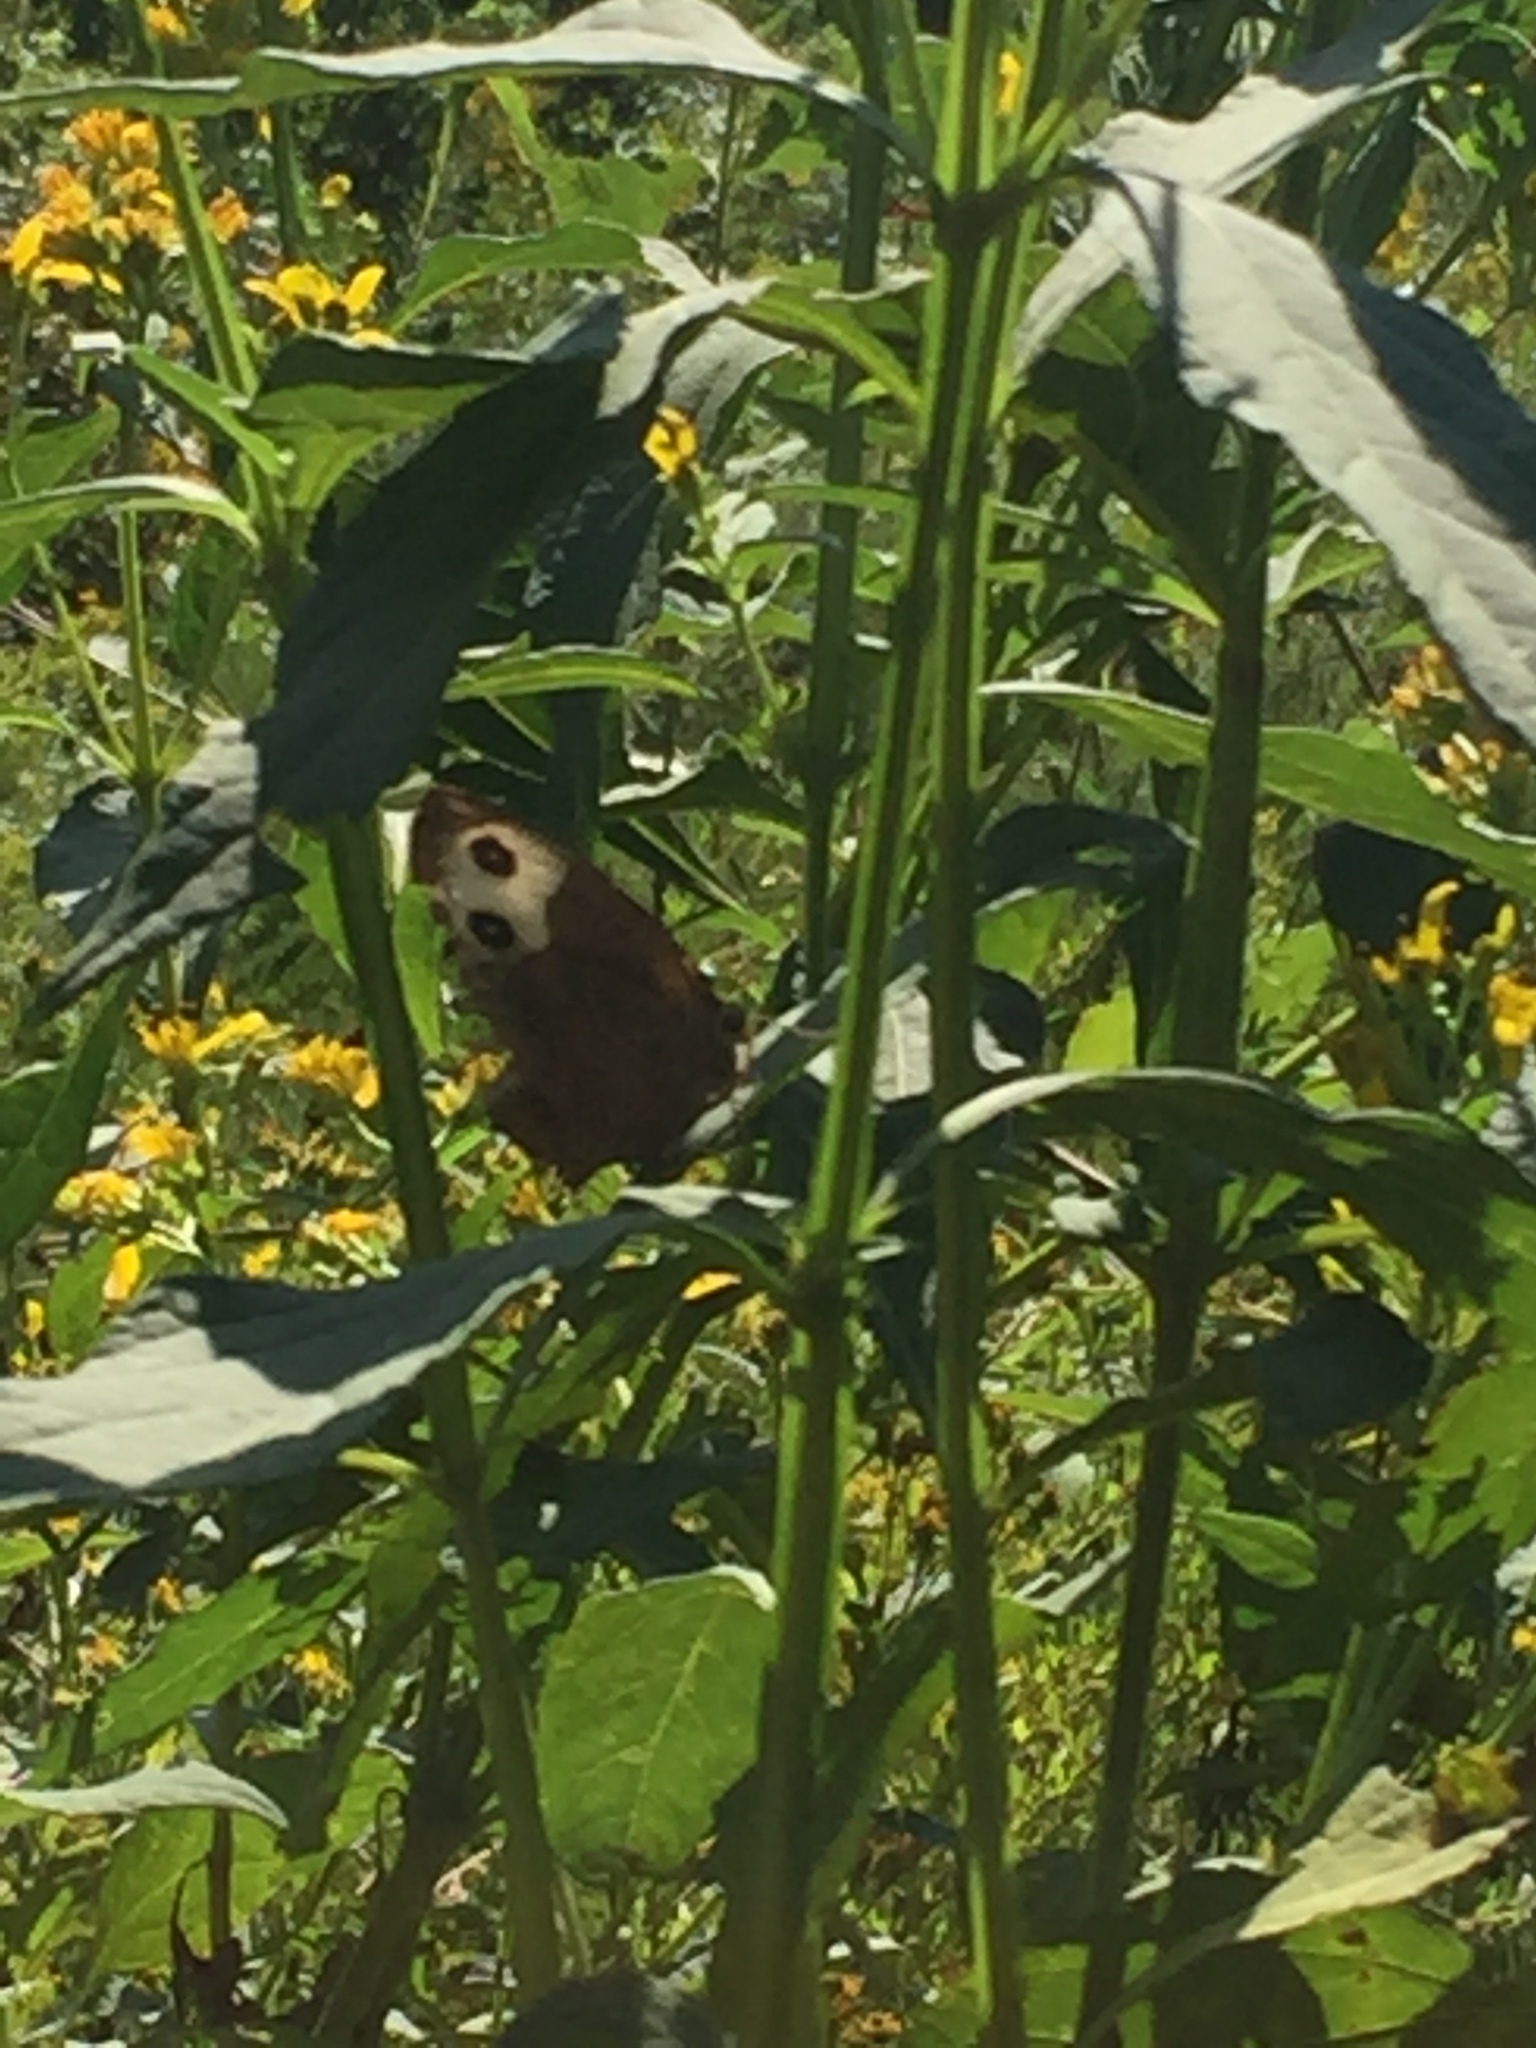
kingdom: Animalia
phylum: Arthropoda
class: Insecta
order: Lepidoptera
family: Nymphalidae
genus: Cercyonis
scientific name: Cercyonis pegala
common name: Common wood-nymph
